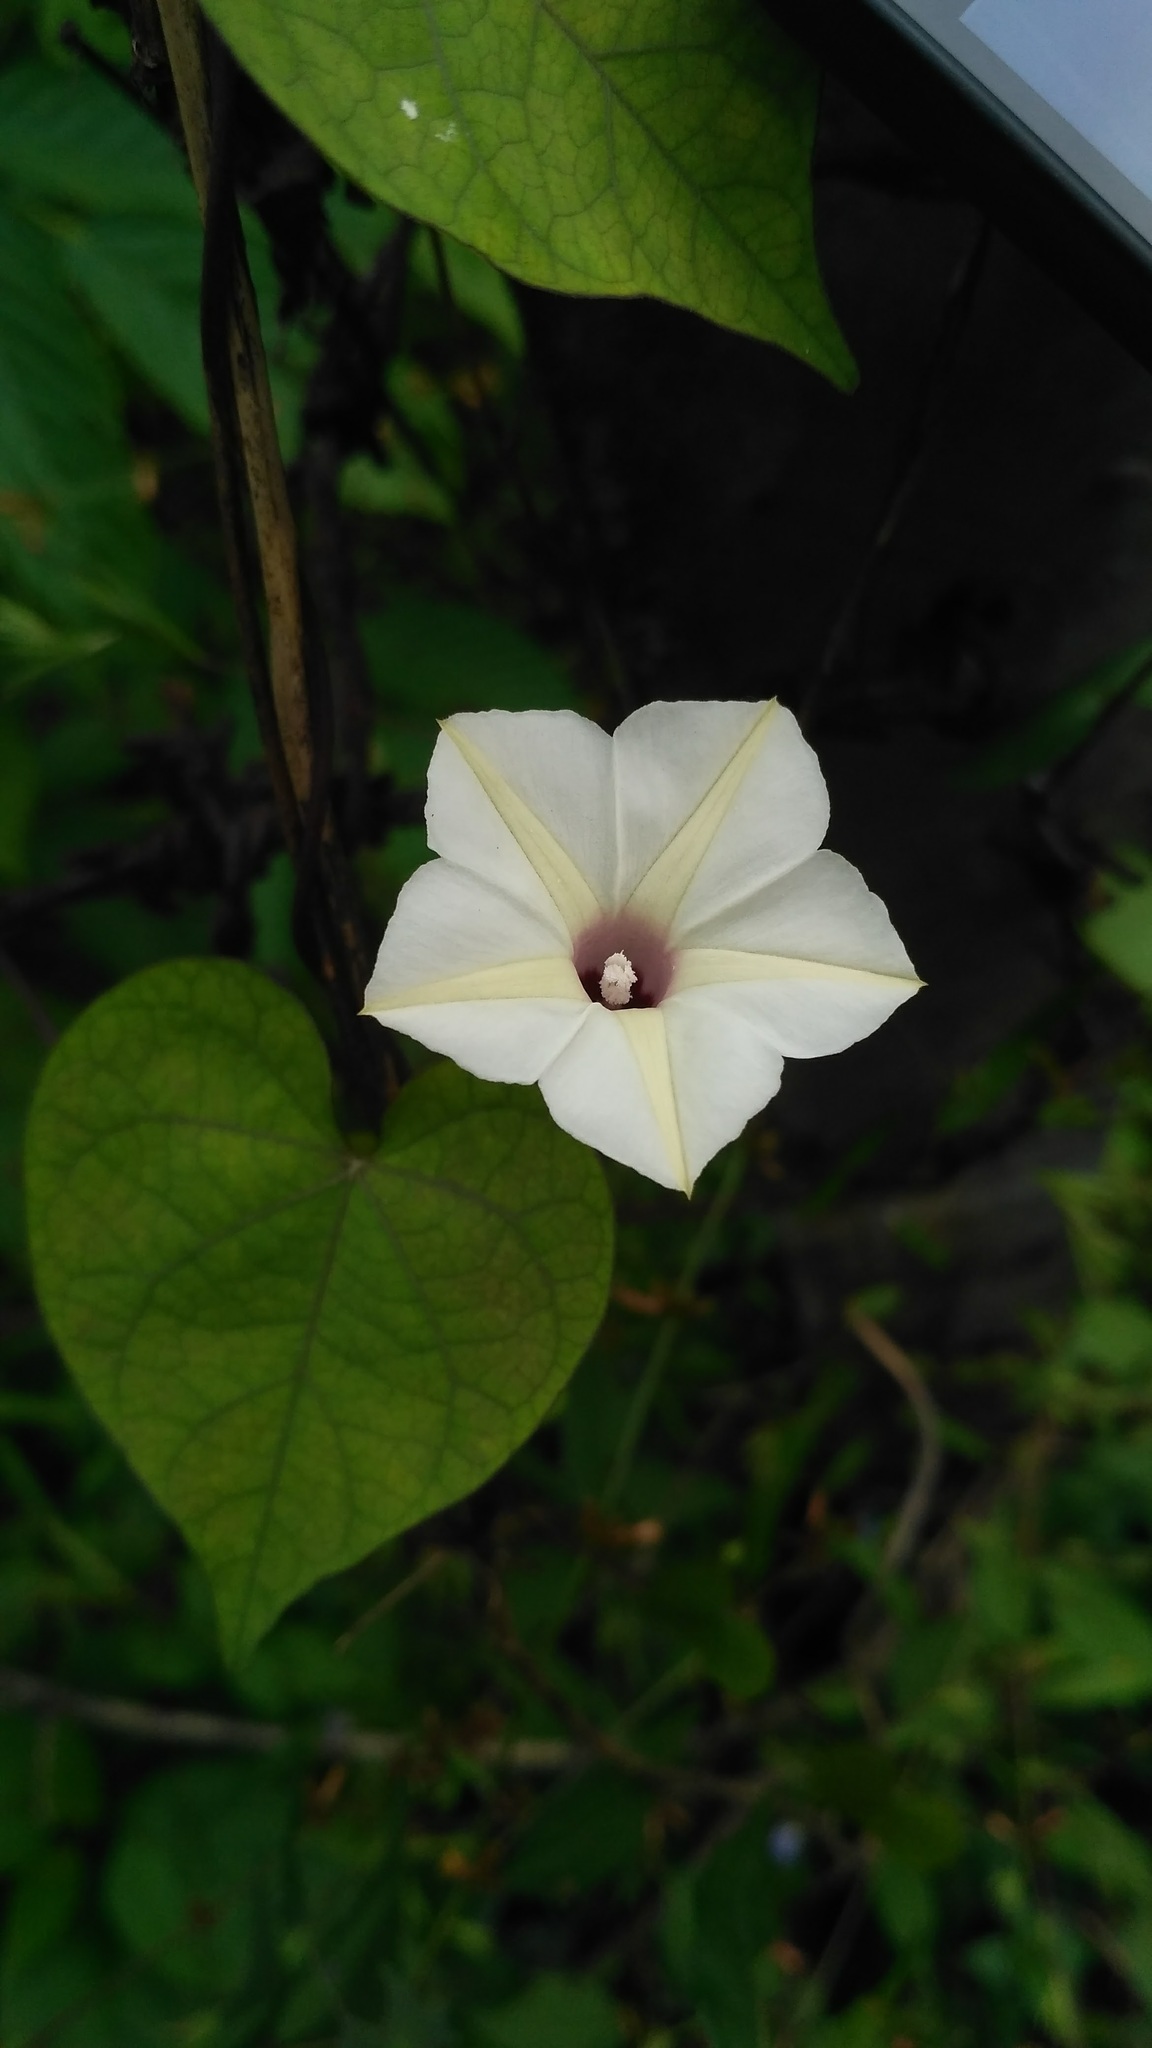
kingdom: Plantae
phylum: Tracheophyta
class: Magnoliopsida
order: Solanales
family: Convolvulaceae
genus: Ipomoea
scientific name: Ipomoea obscura
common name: Obscure morning-glory
